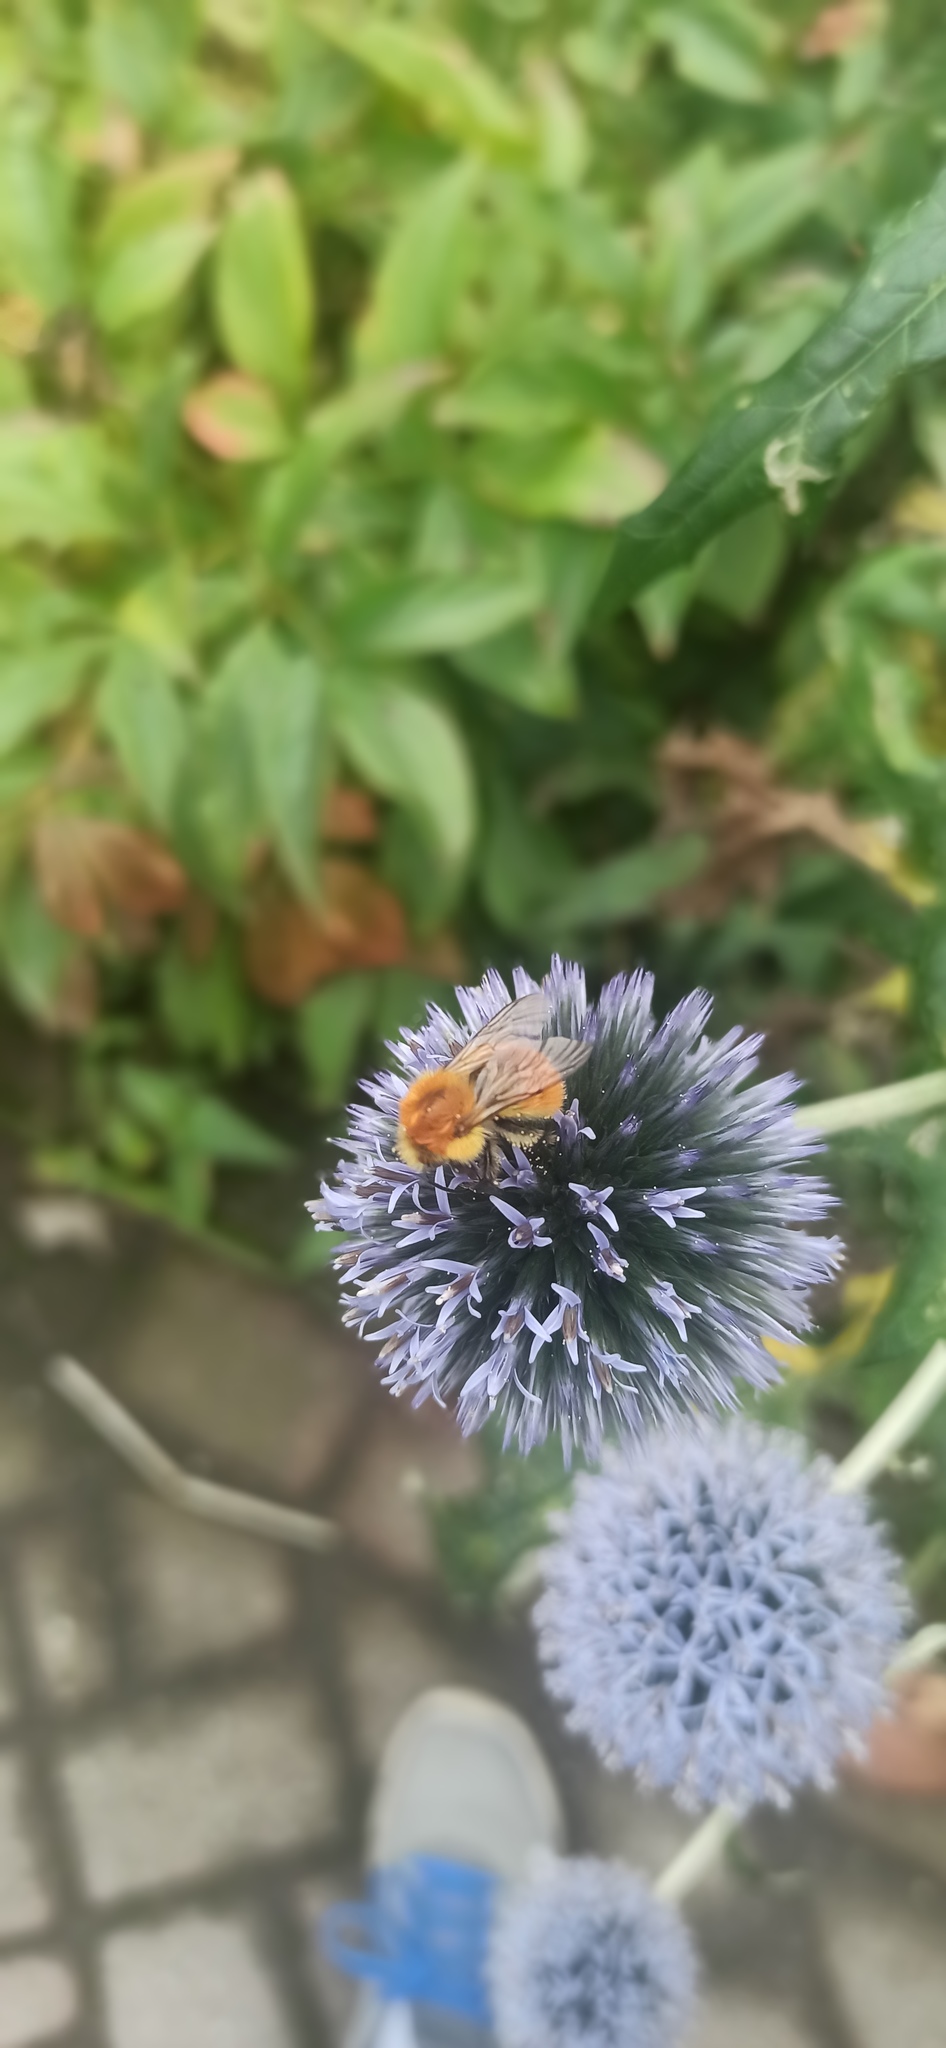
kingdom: Animalia
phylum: Arthropoda
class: Insecta
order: Hymenoptera
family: Apidae
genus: Bombus
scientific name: Bombus pascuorum
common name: Common carder bee
